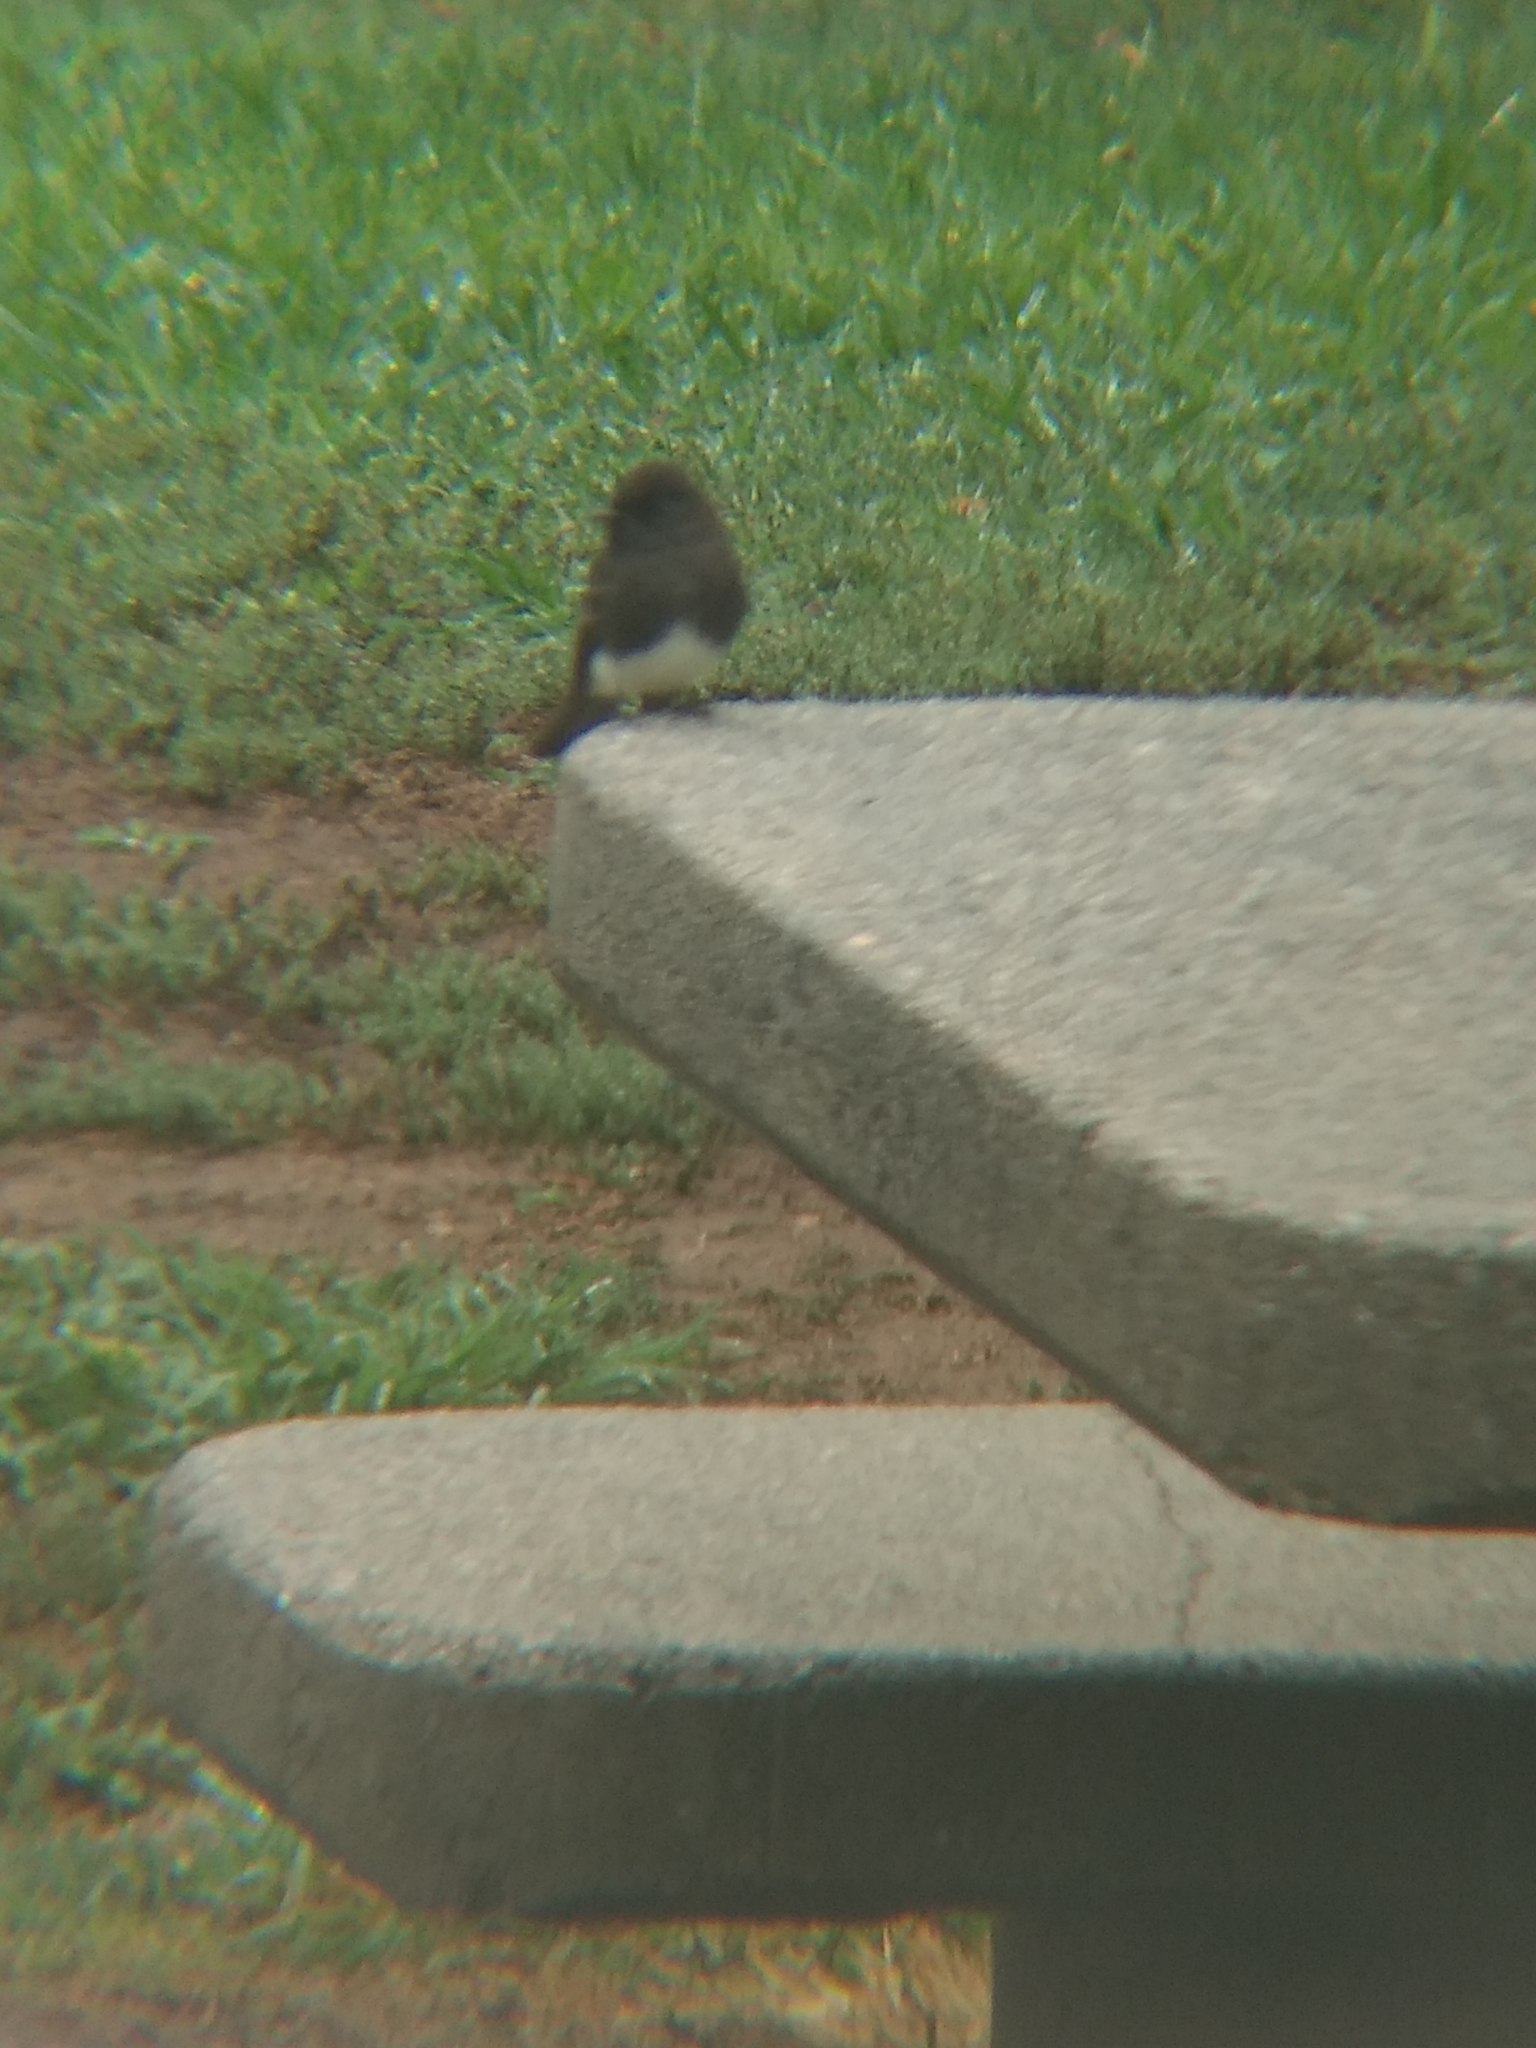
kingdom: Animalia
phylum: Chordata
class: Aves
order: Passeriformes
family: Tyrannidae
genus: Sayornis
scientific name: Sayornis nigricans
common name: Black phoebe
